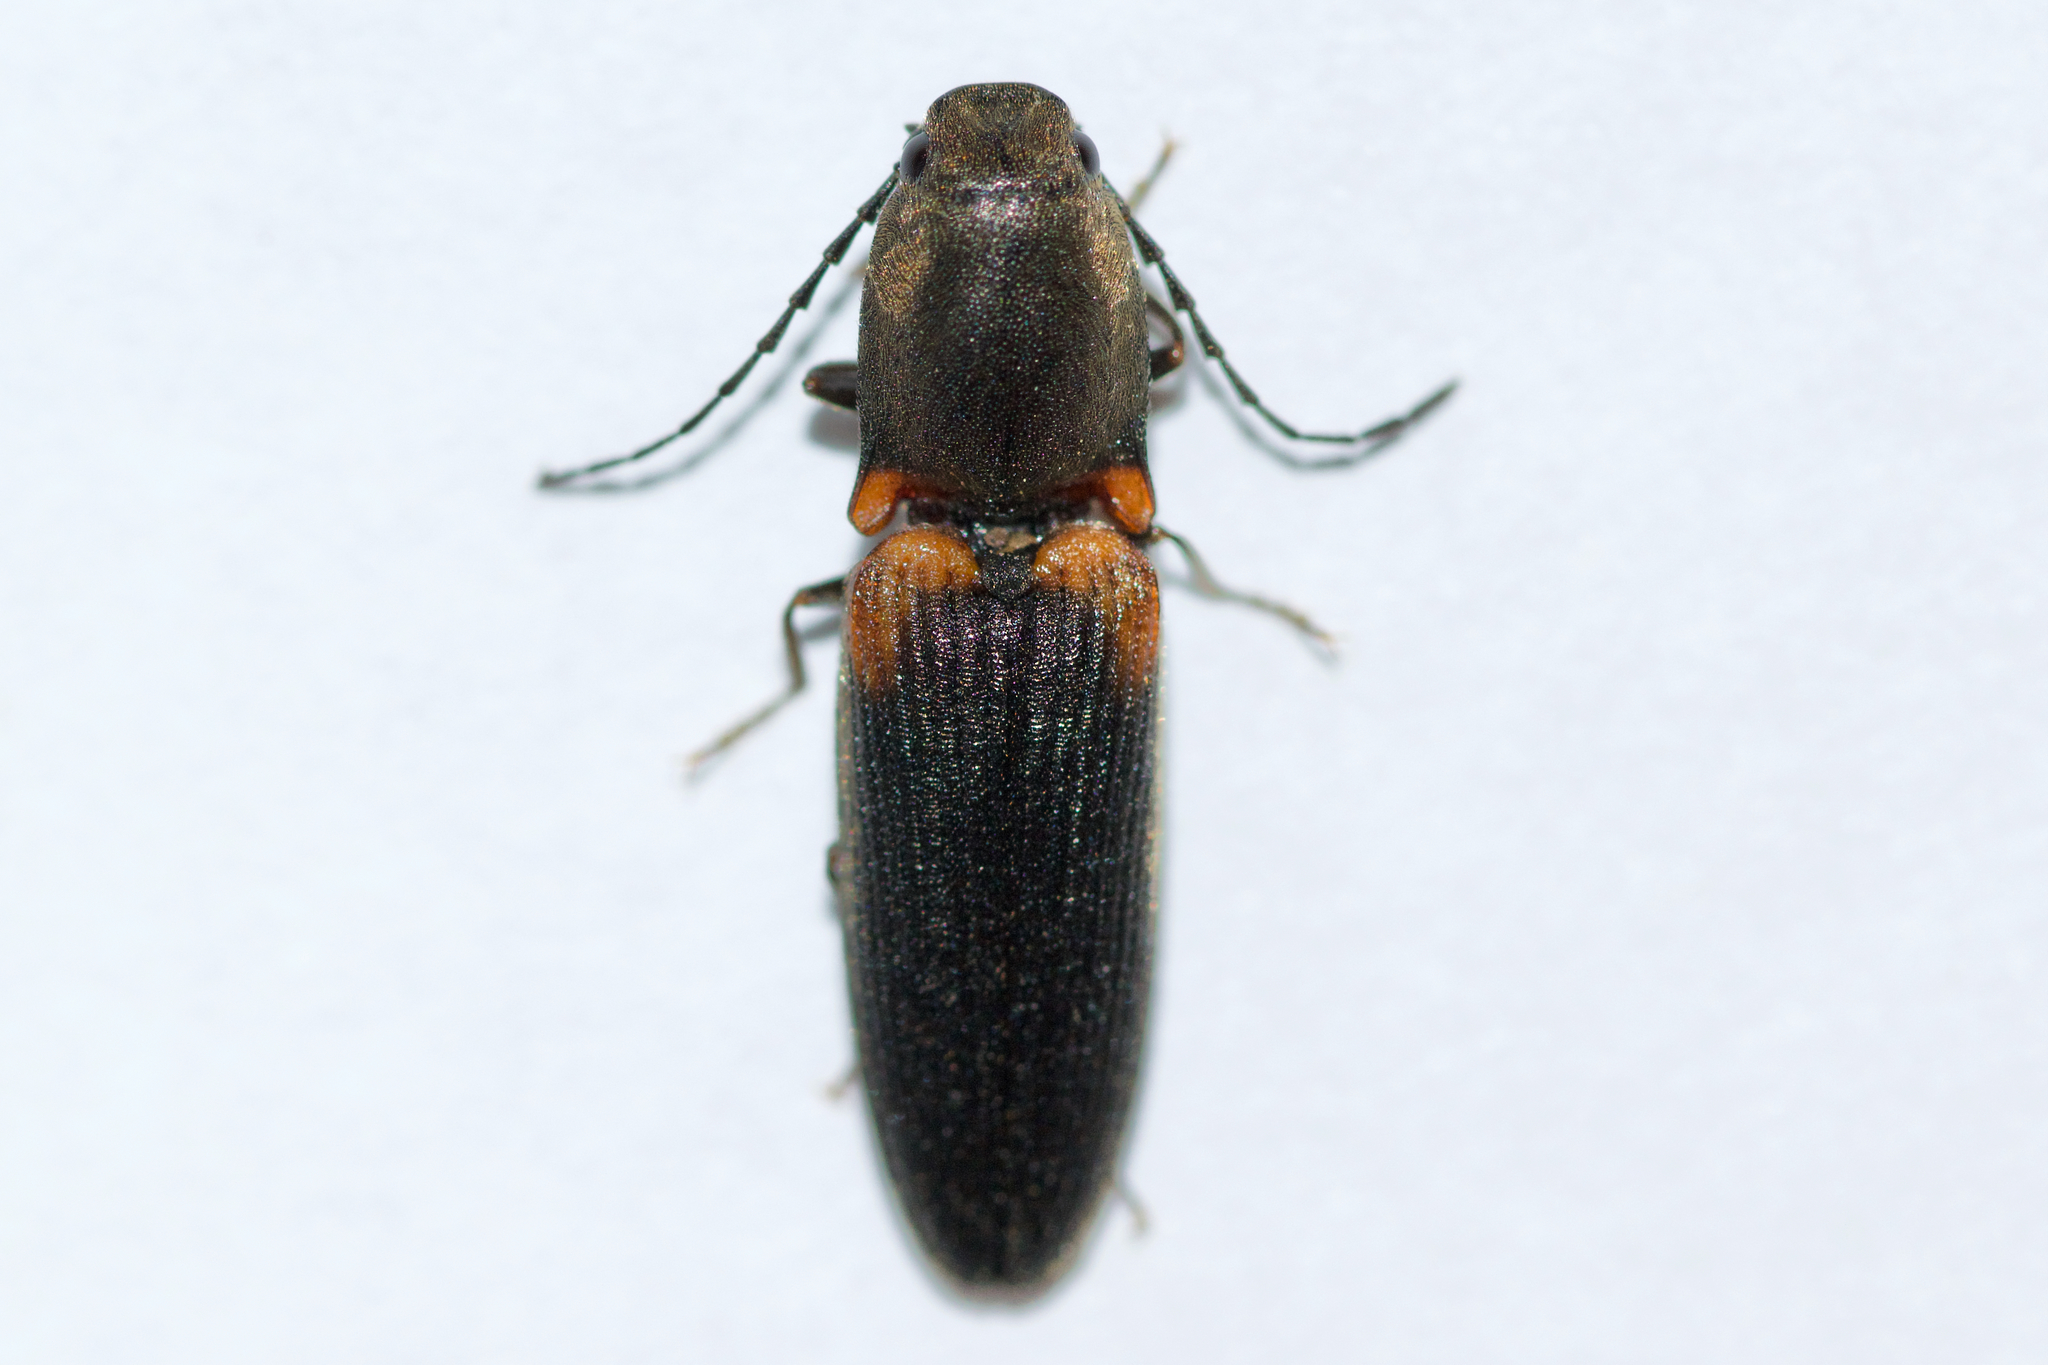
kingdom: Animalia
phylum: Arthropoda
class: Insecta
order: Coleoptera
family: Elateridae
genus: Athous
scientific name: Athous scapularis
